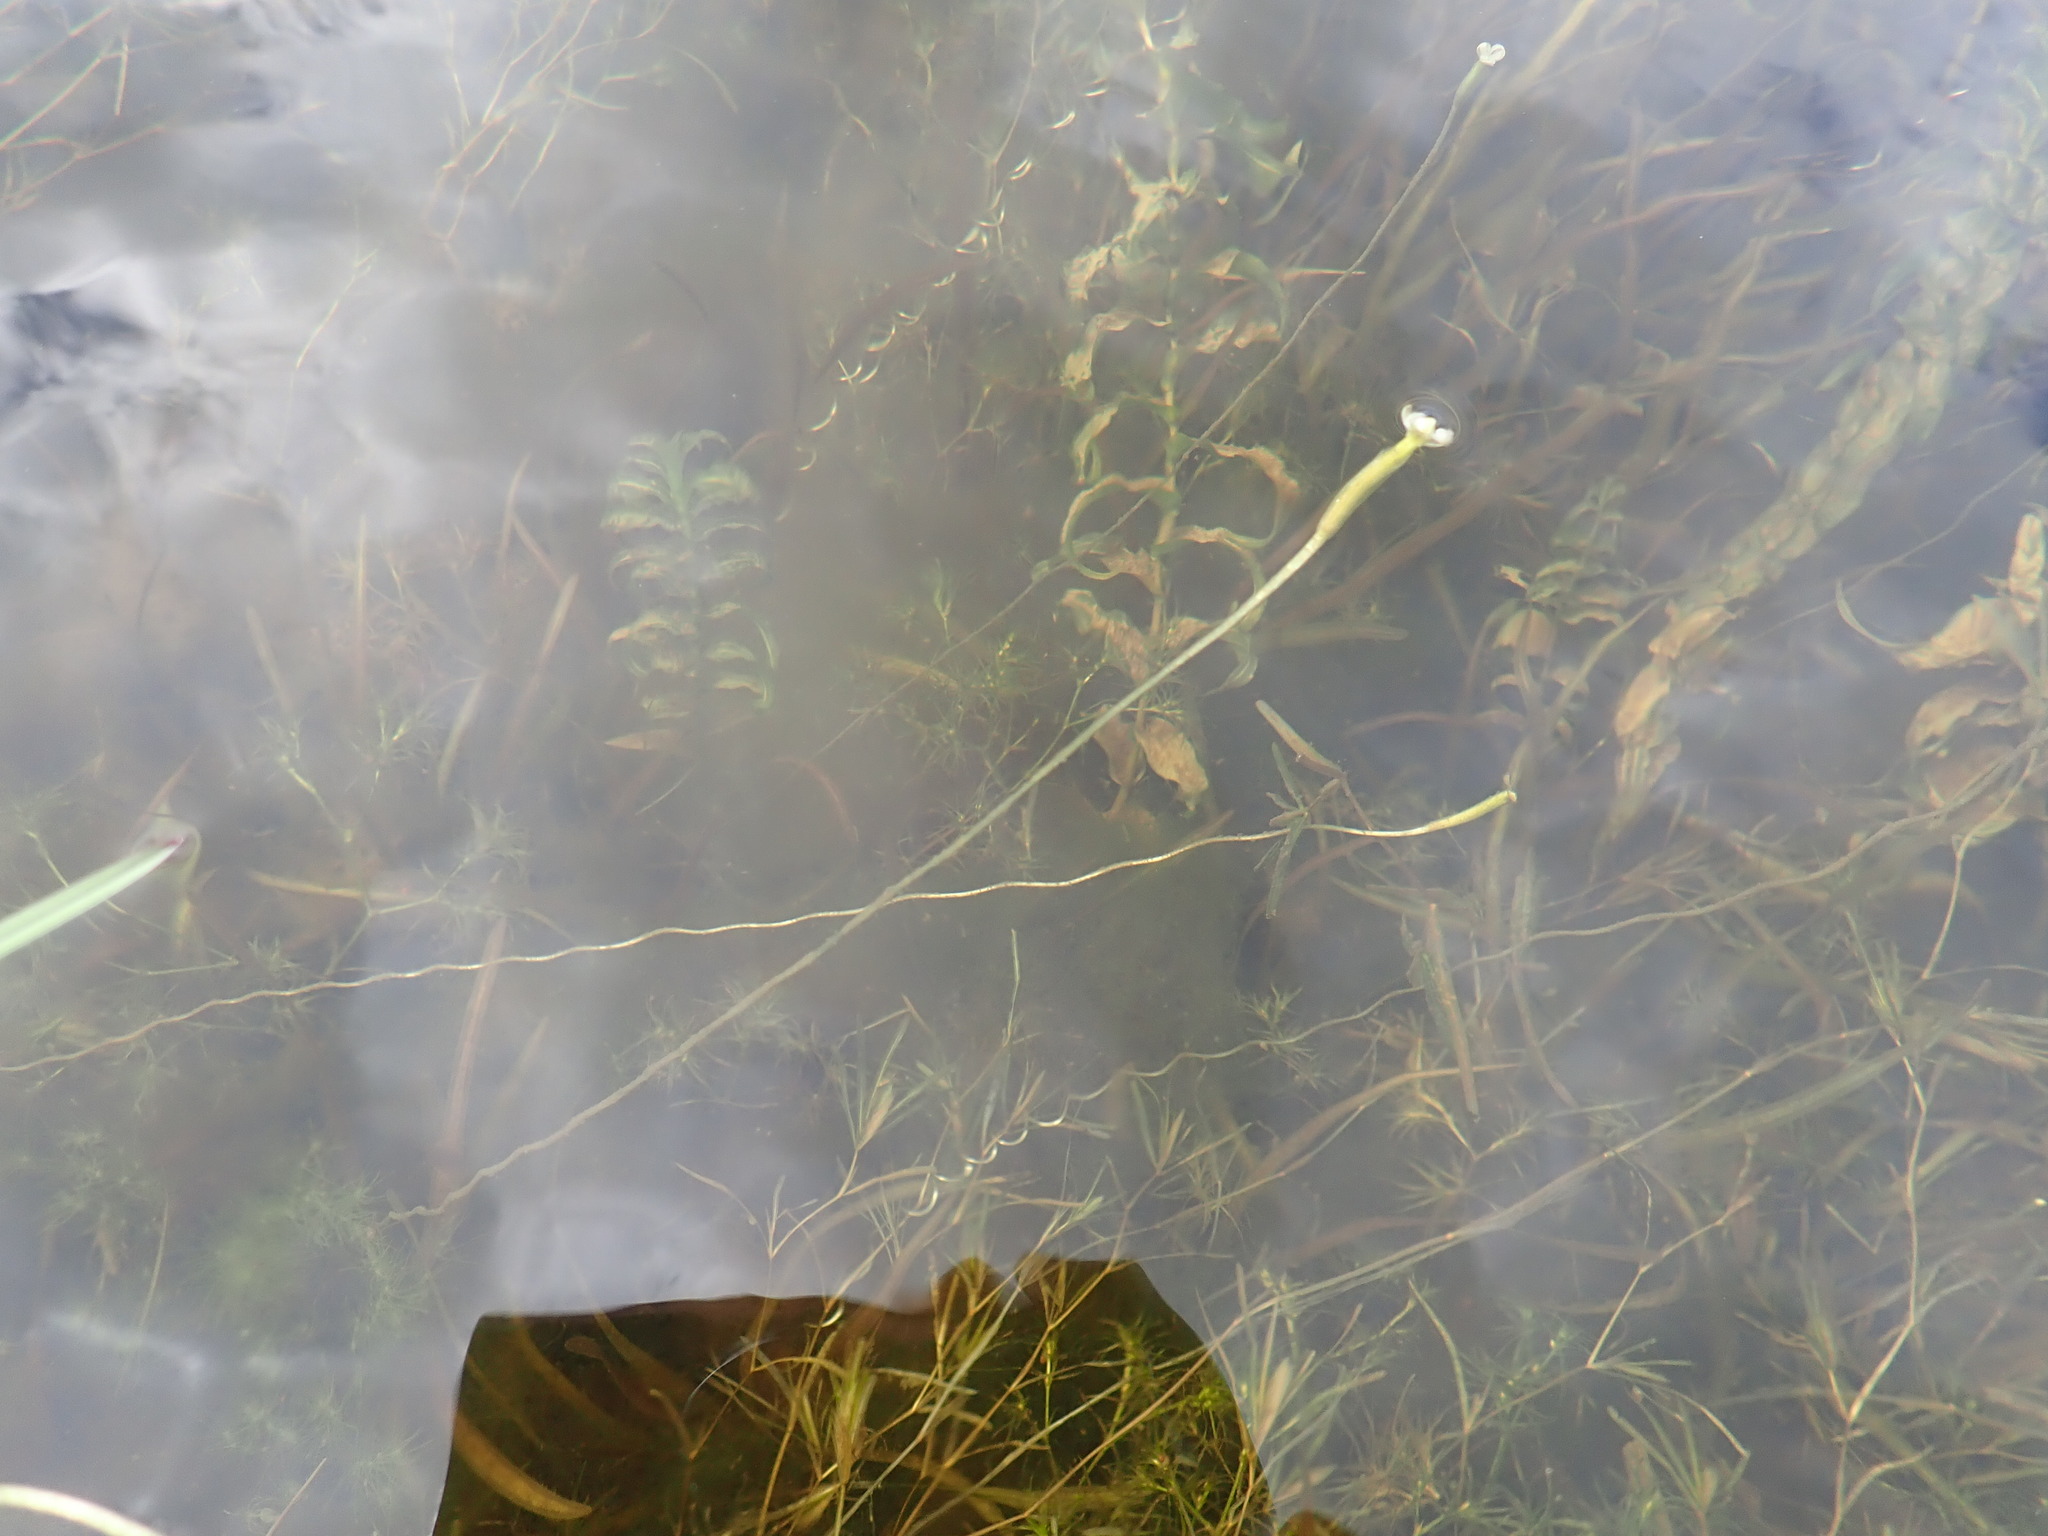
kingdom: Plantae
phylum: Tracheophyta
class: Liliopsida
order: Alismatales
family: Hydrocharitaceae
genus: Vallisneria
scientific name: Vallisneria americana
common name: American eelgrass
